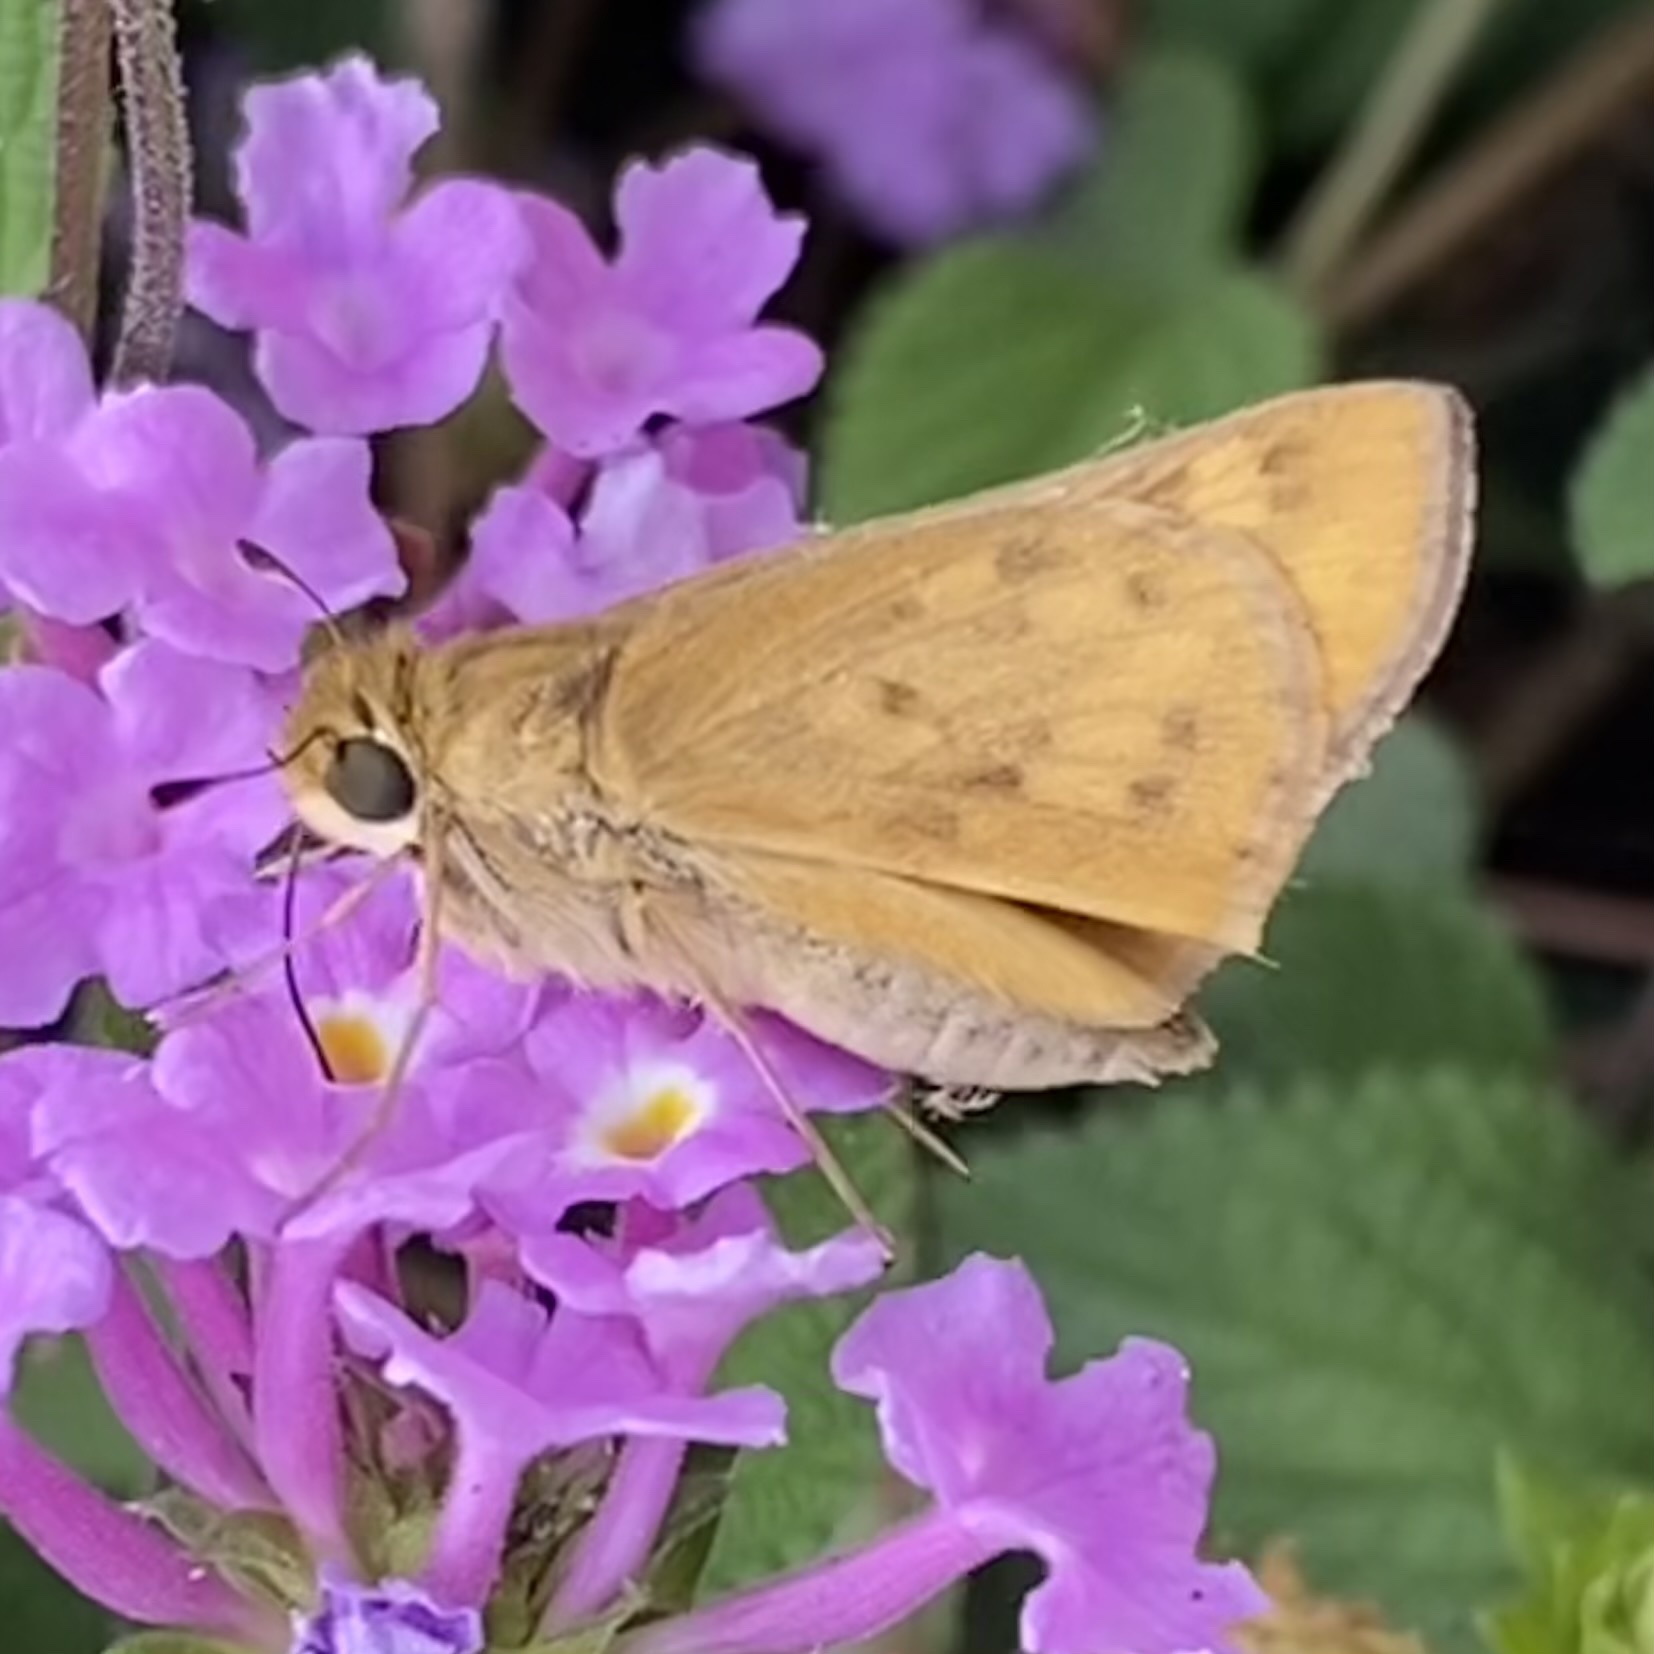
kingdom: Animalia
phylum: Arthropoda
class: Insecta
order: Lepidoptera
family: Hesperiidae
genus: Hylephila
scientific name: Hylephila phyleus
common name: Fiery skipper
